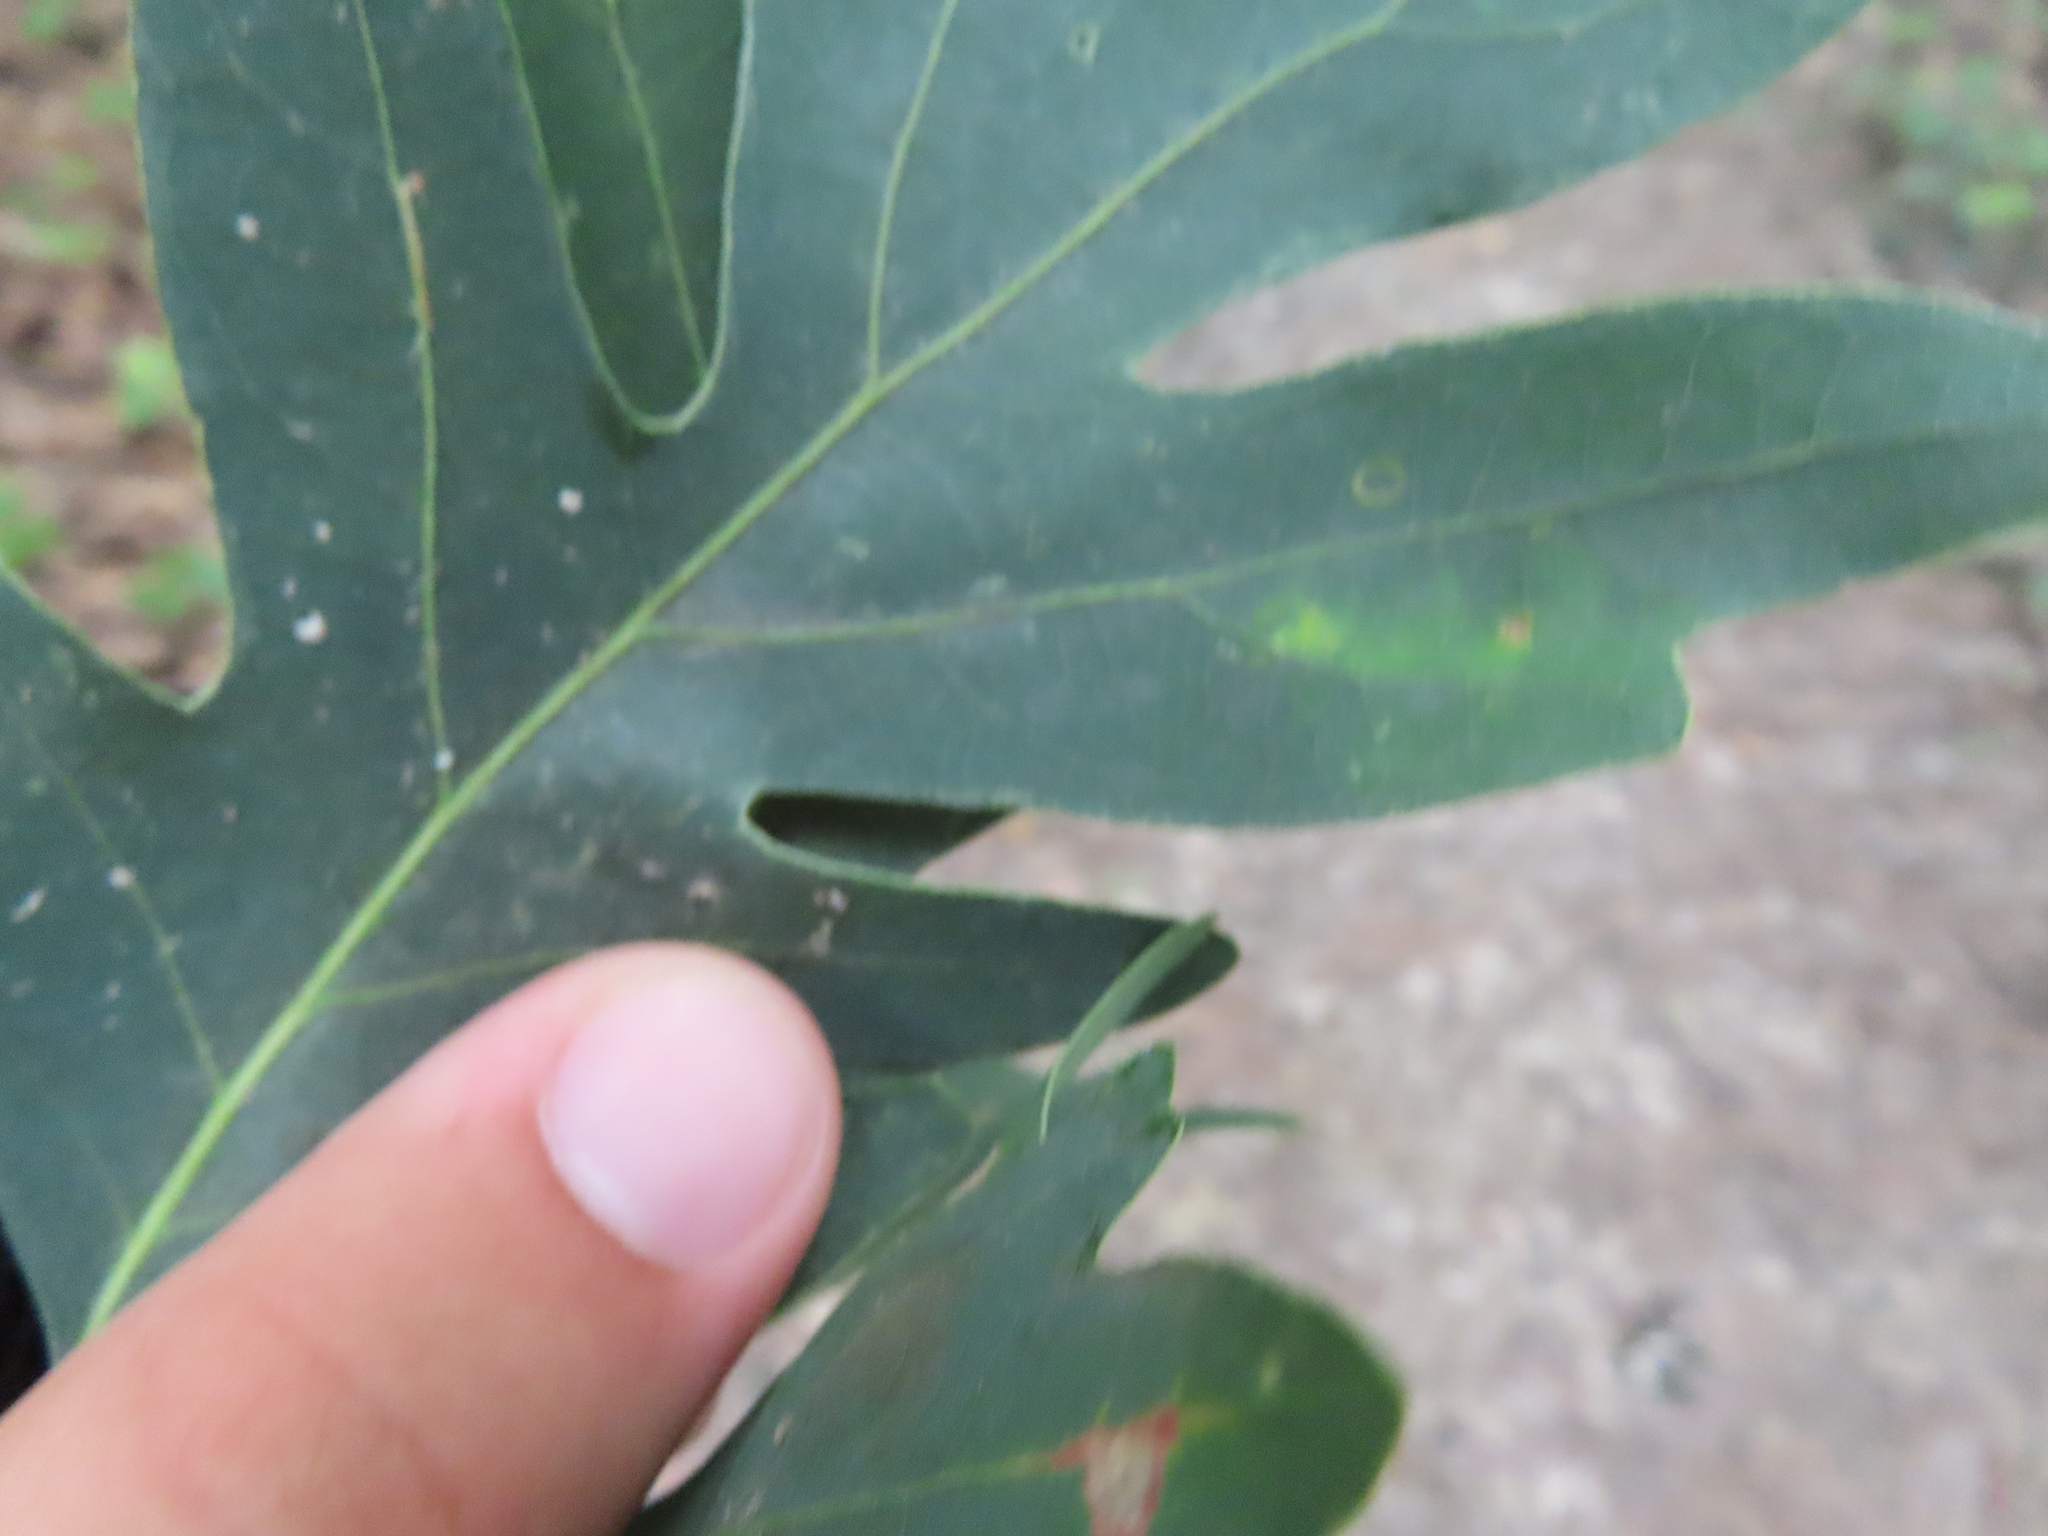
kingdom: Animalia
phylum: Arthropoda
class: Insecta
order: Hymenoptera
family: Cynipidae
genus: Philonix
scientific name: Philonix fulvicollis
